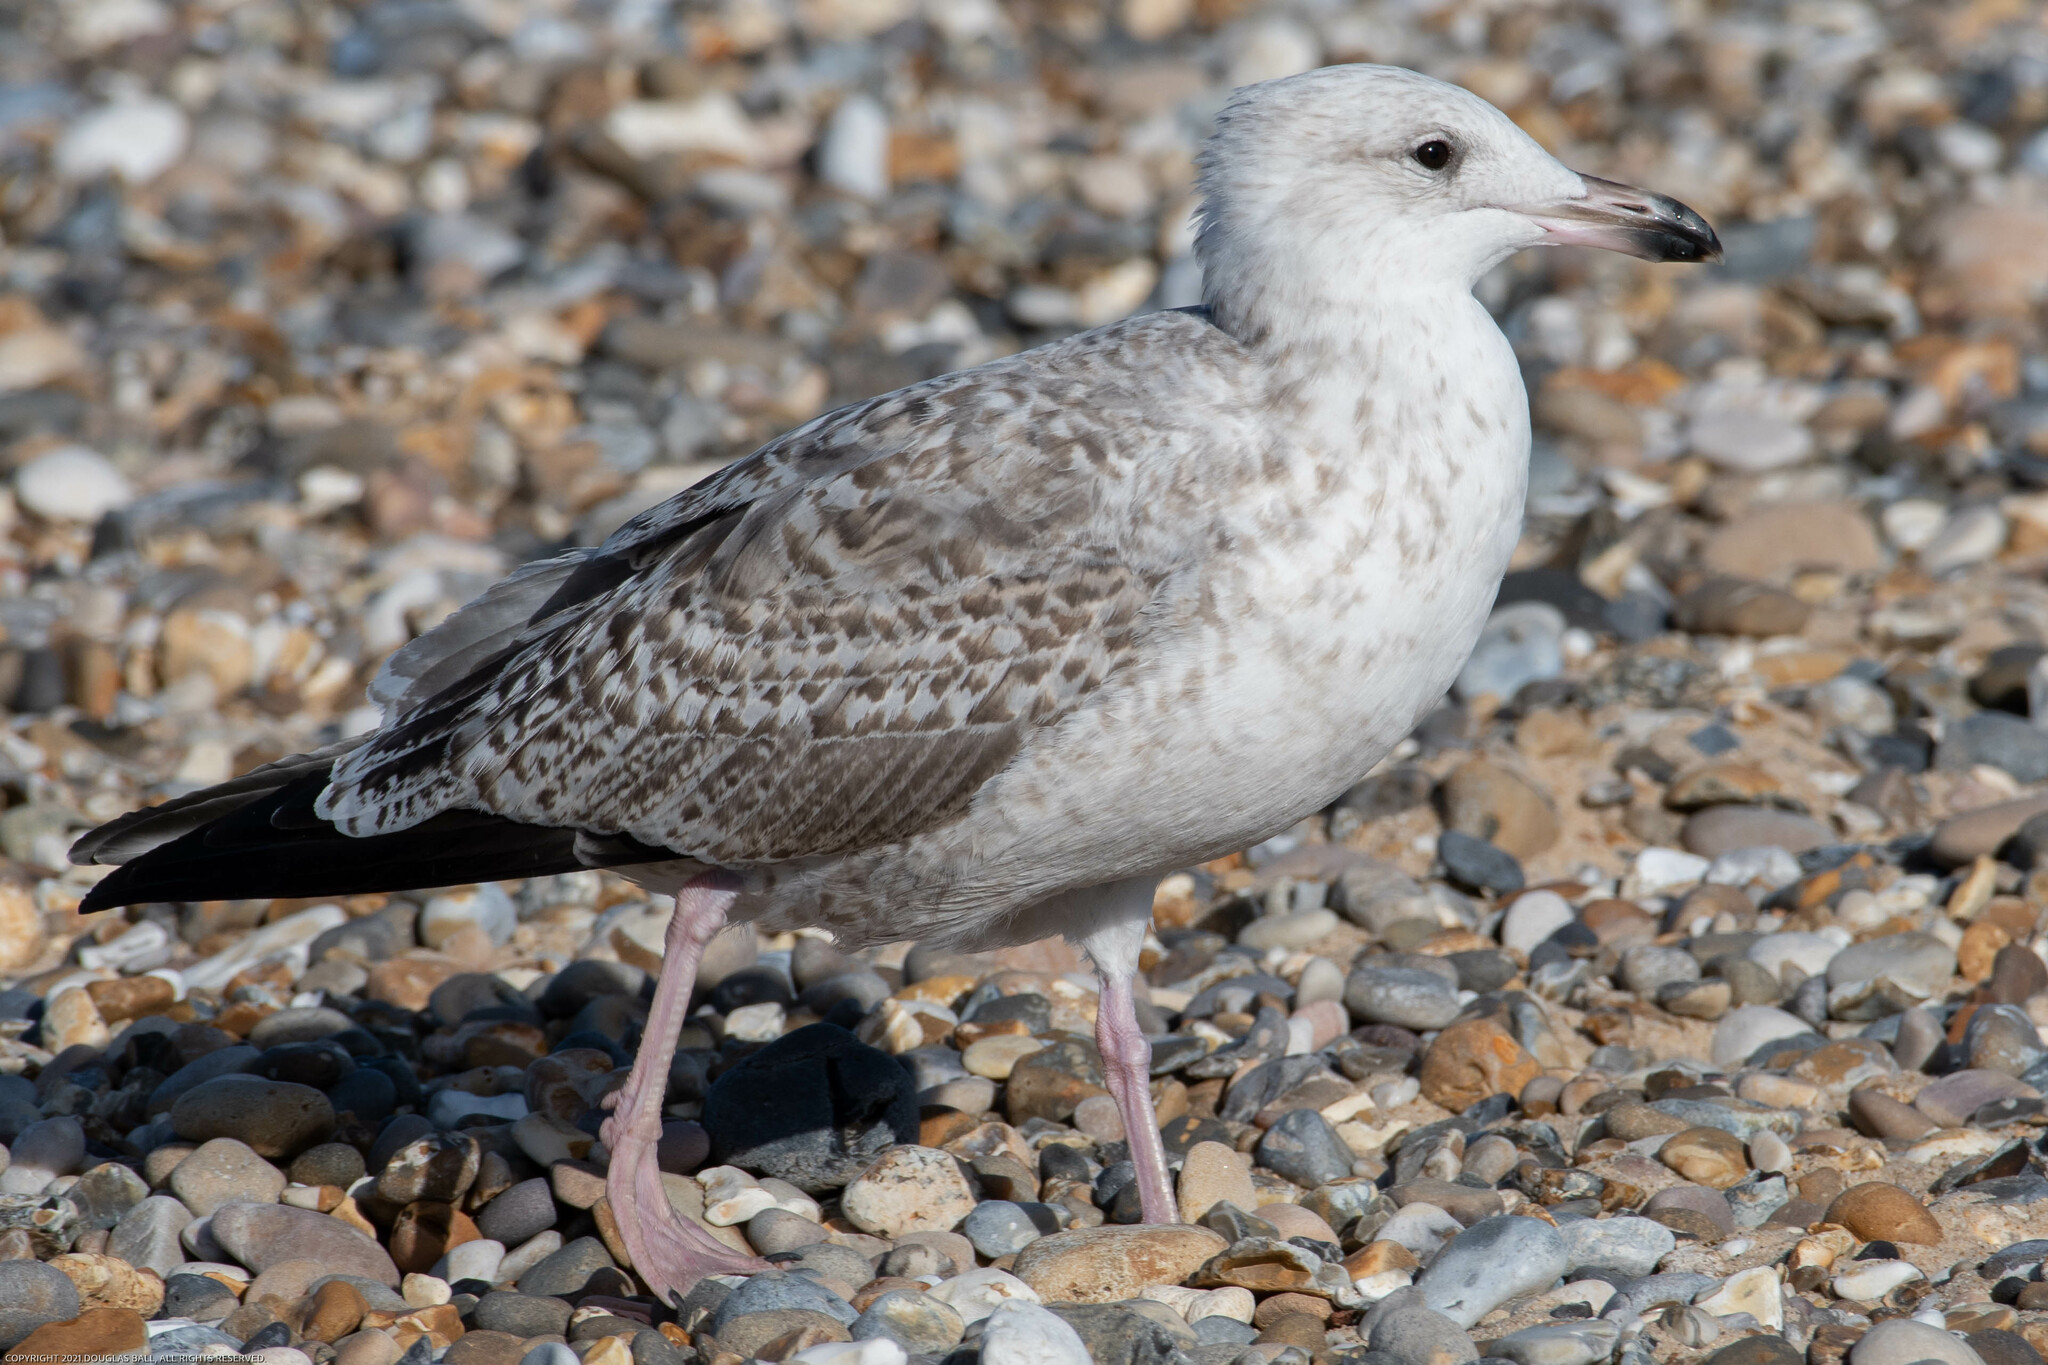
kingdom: Animalia
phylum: Chordata
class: Aves
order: Charadriiformes
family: Laridae
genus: Larus
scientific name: Larus argentatus
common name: Herring gull
